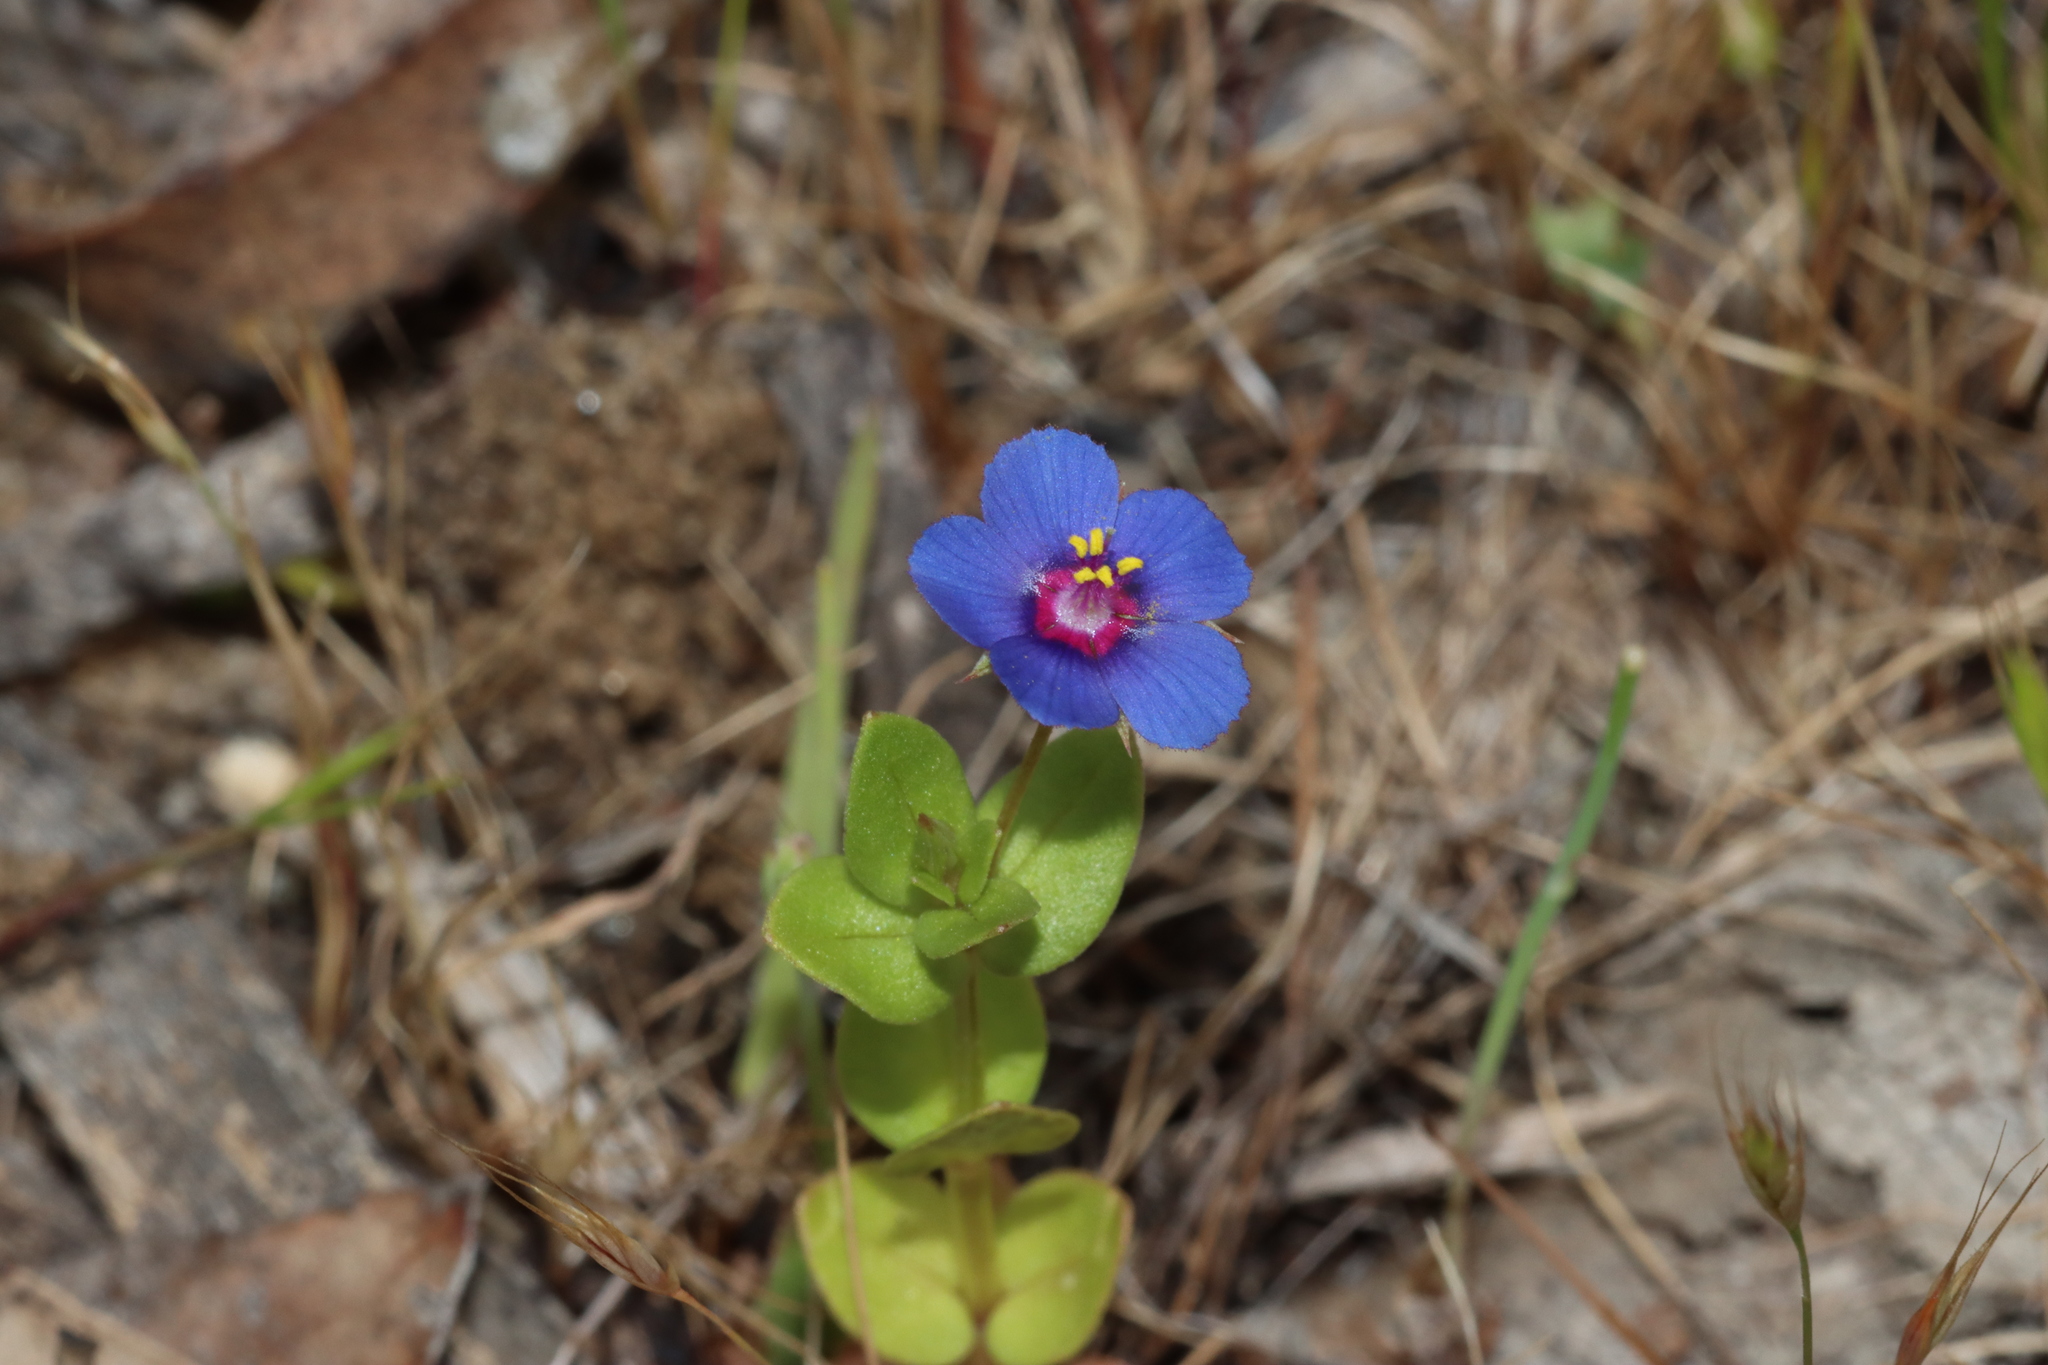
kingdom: Plantae
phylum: Tracheophyta
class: Magnoliopsida
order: Ericales
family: Primulaceae
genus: Lysimachia
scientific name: Lysimachia loeflingii
